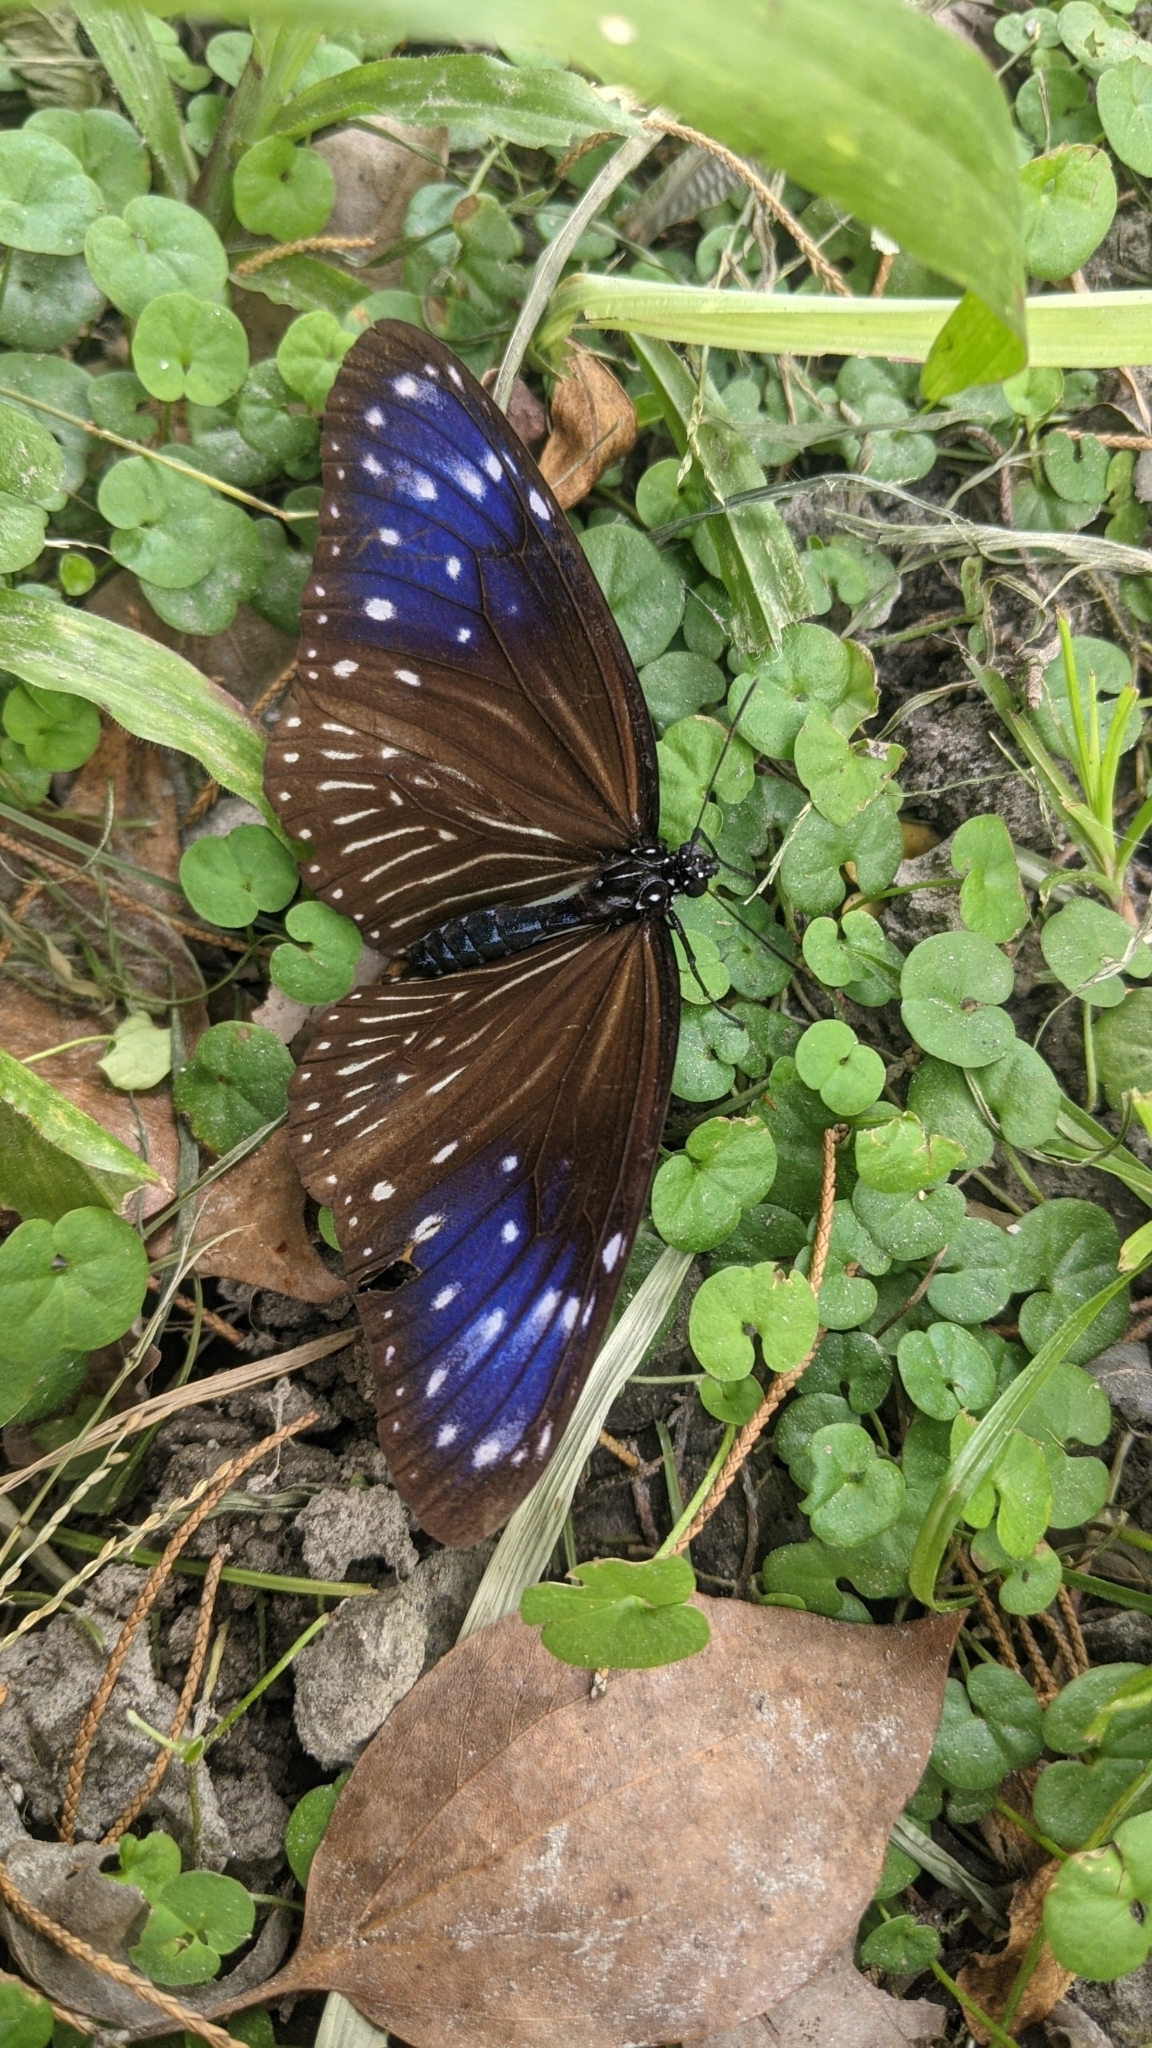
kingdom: Animalia
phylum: Arthropoda
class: Insecta
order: Lepidoptera
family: Nymphalidae
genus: Euploea
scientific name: Euploea mulciber
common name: Striped blue crow butterfly
